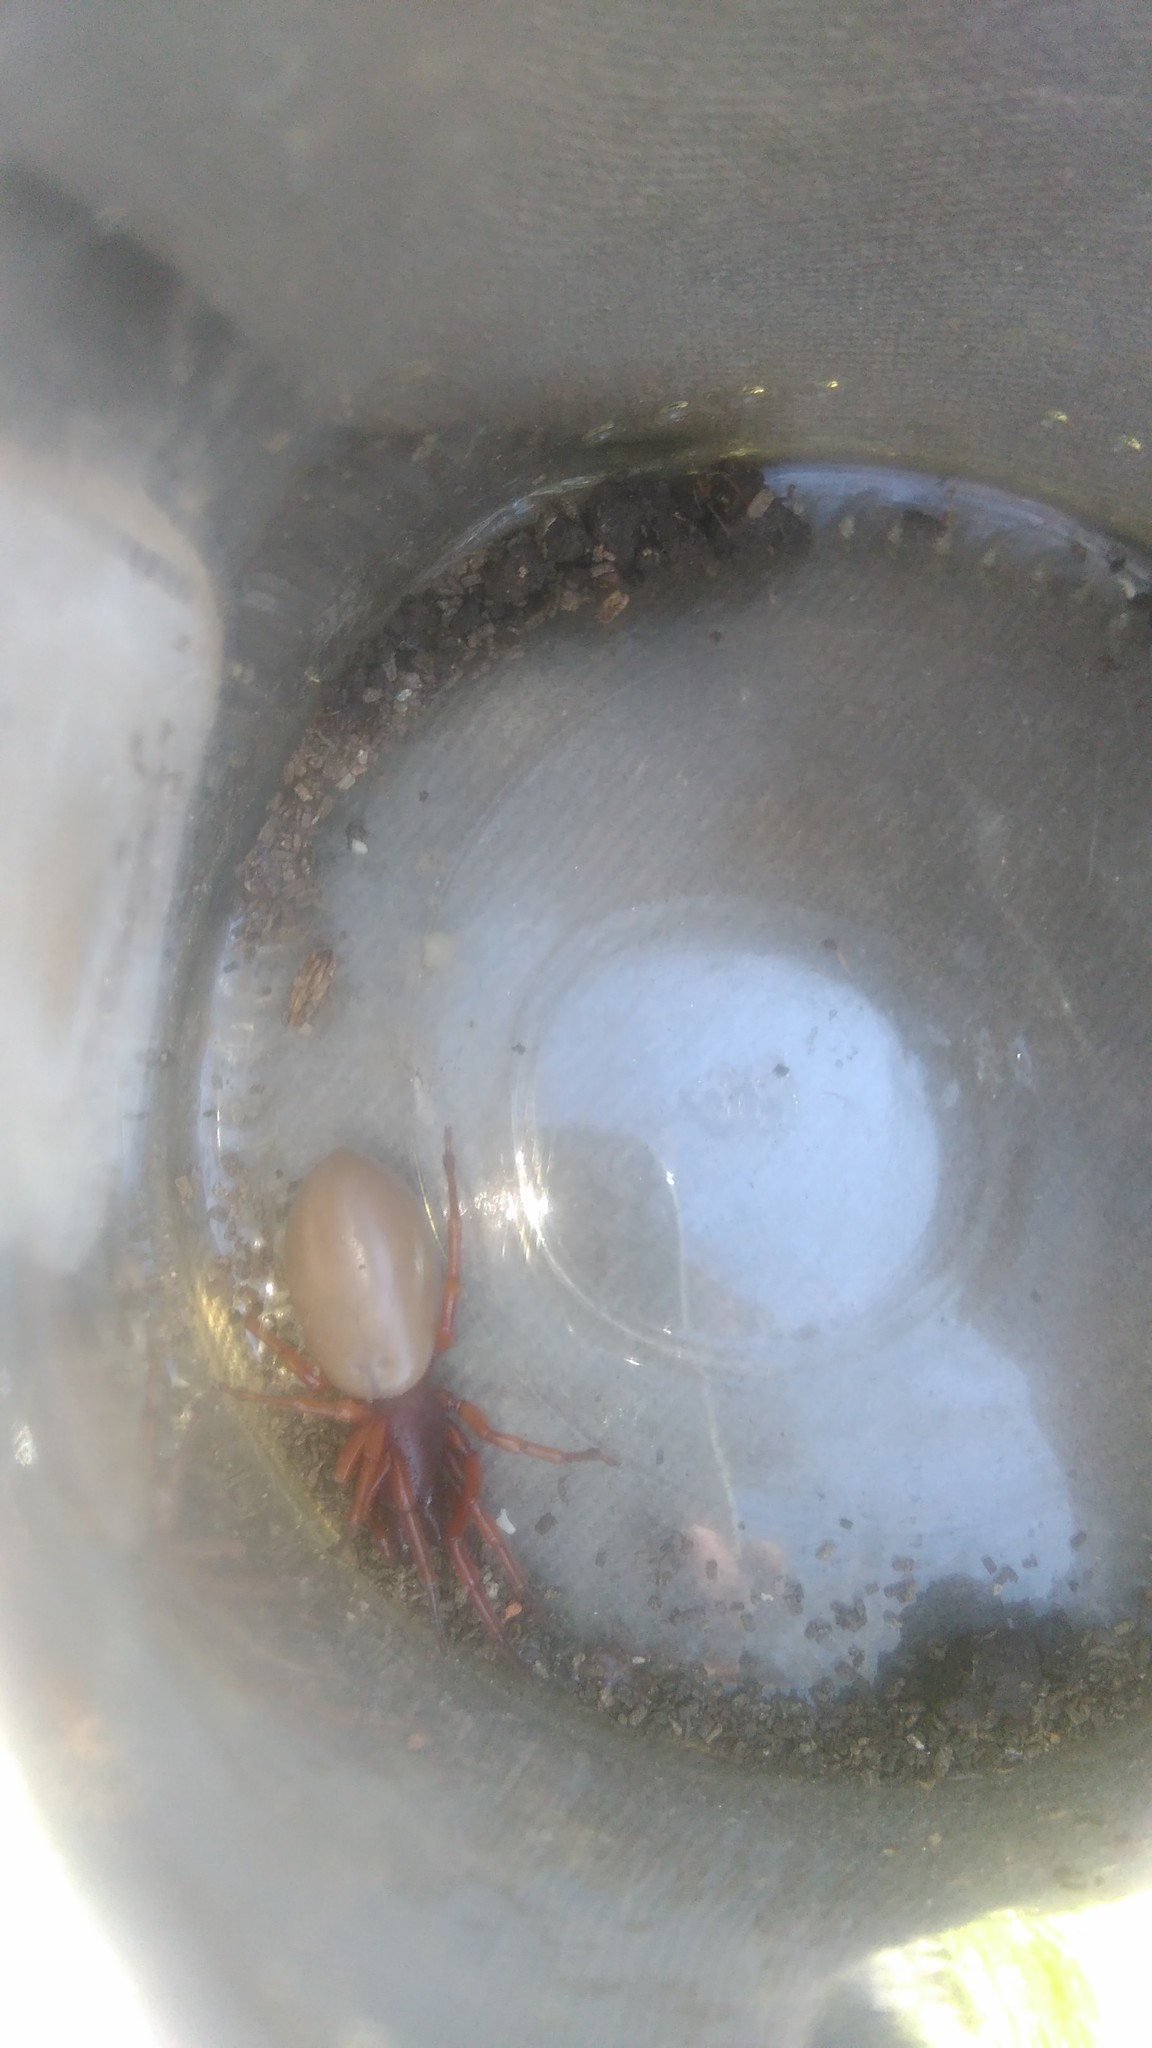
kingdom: Animalia
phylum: Arthropoda
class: Arachnida
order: Araneae
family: Dysderidae
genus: Dysdera
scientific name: Dysdera crocata
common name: Woodlouse spider
